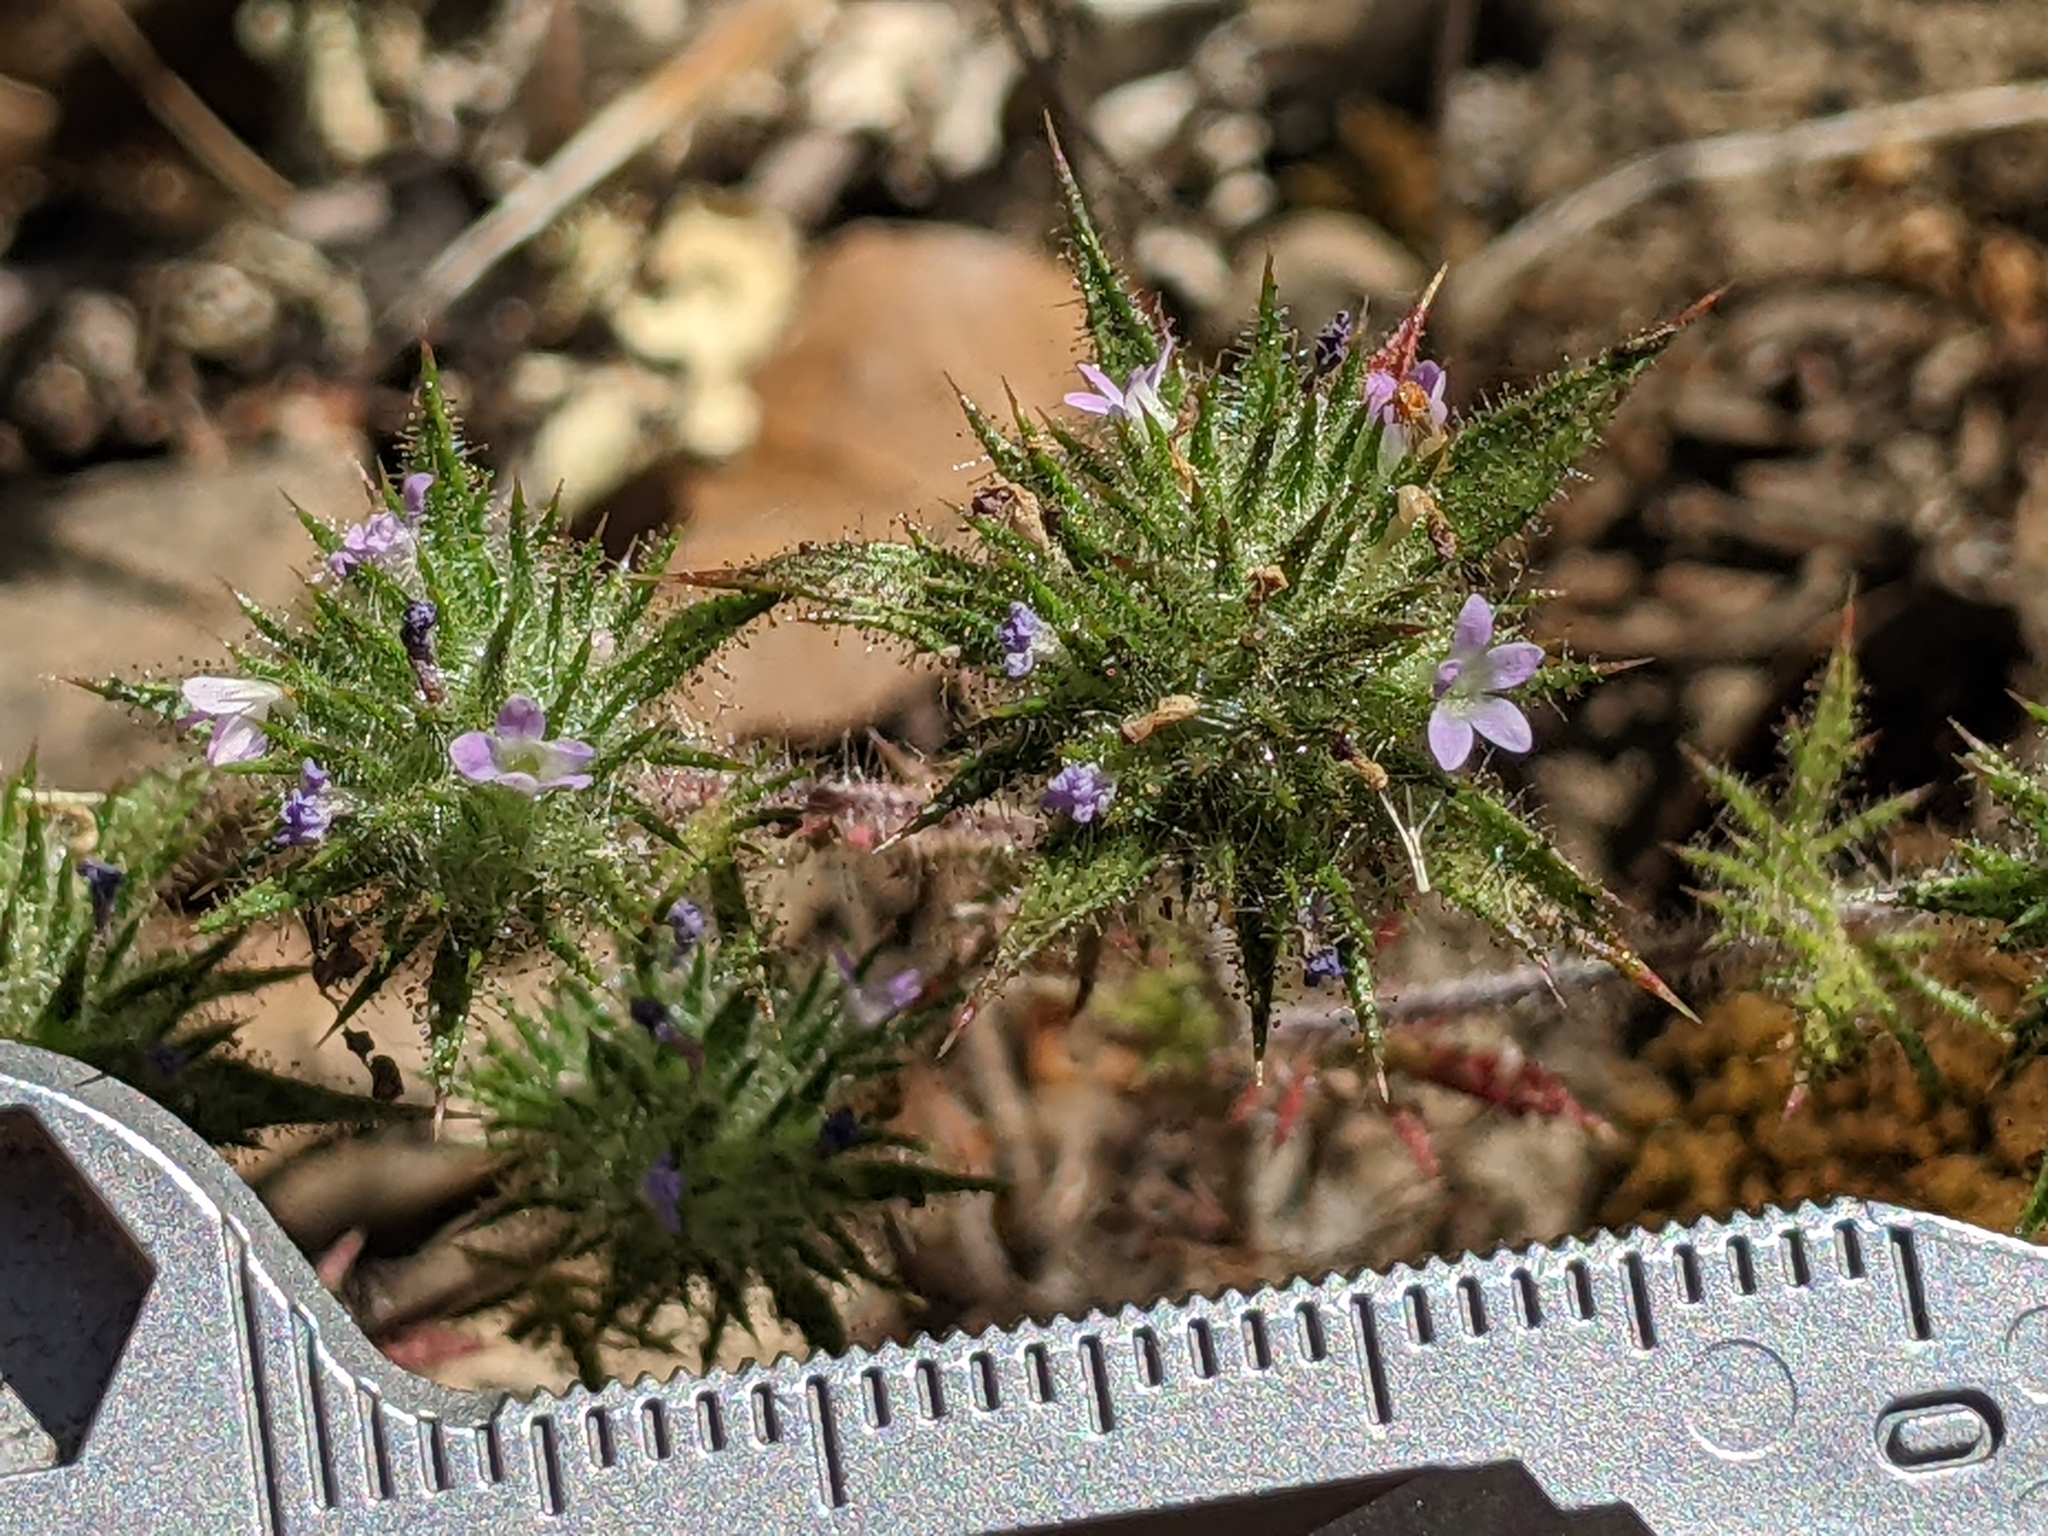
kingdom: Plantae
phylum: Tracheophyta
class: Magnoliopsida
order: Ericales
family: Polemoniaceae
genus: Navarretia
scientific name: Navarretia mellita
